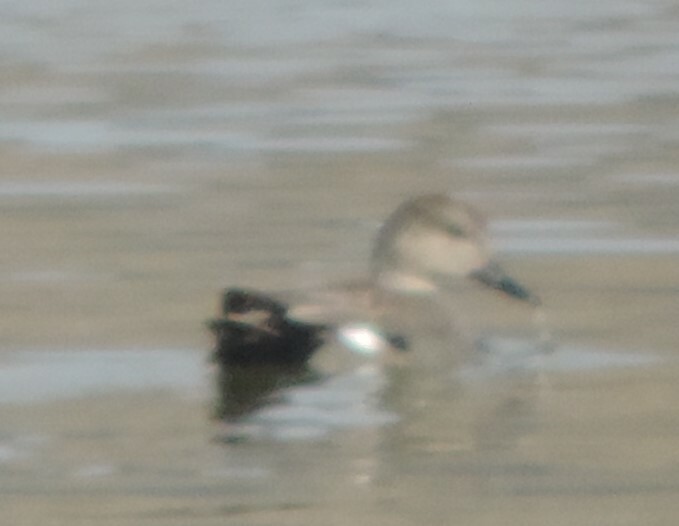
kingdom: Animalia
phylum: Chordata
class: Aves
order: Anseriformes
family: Anatidae
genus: Mareca
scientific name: Mareca strepera
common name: Gadwall
